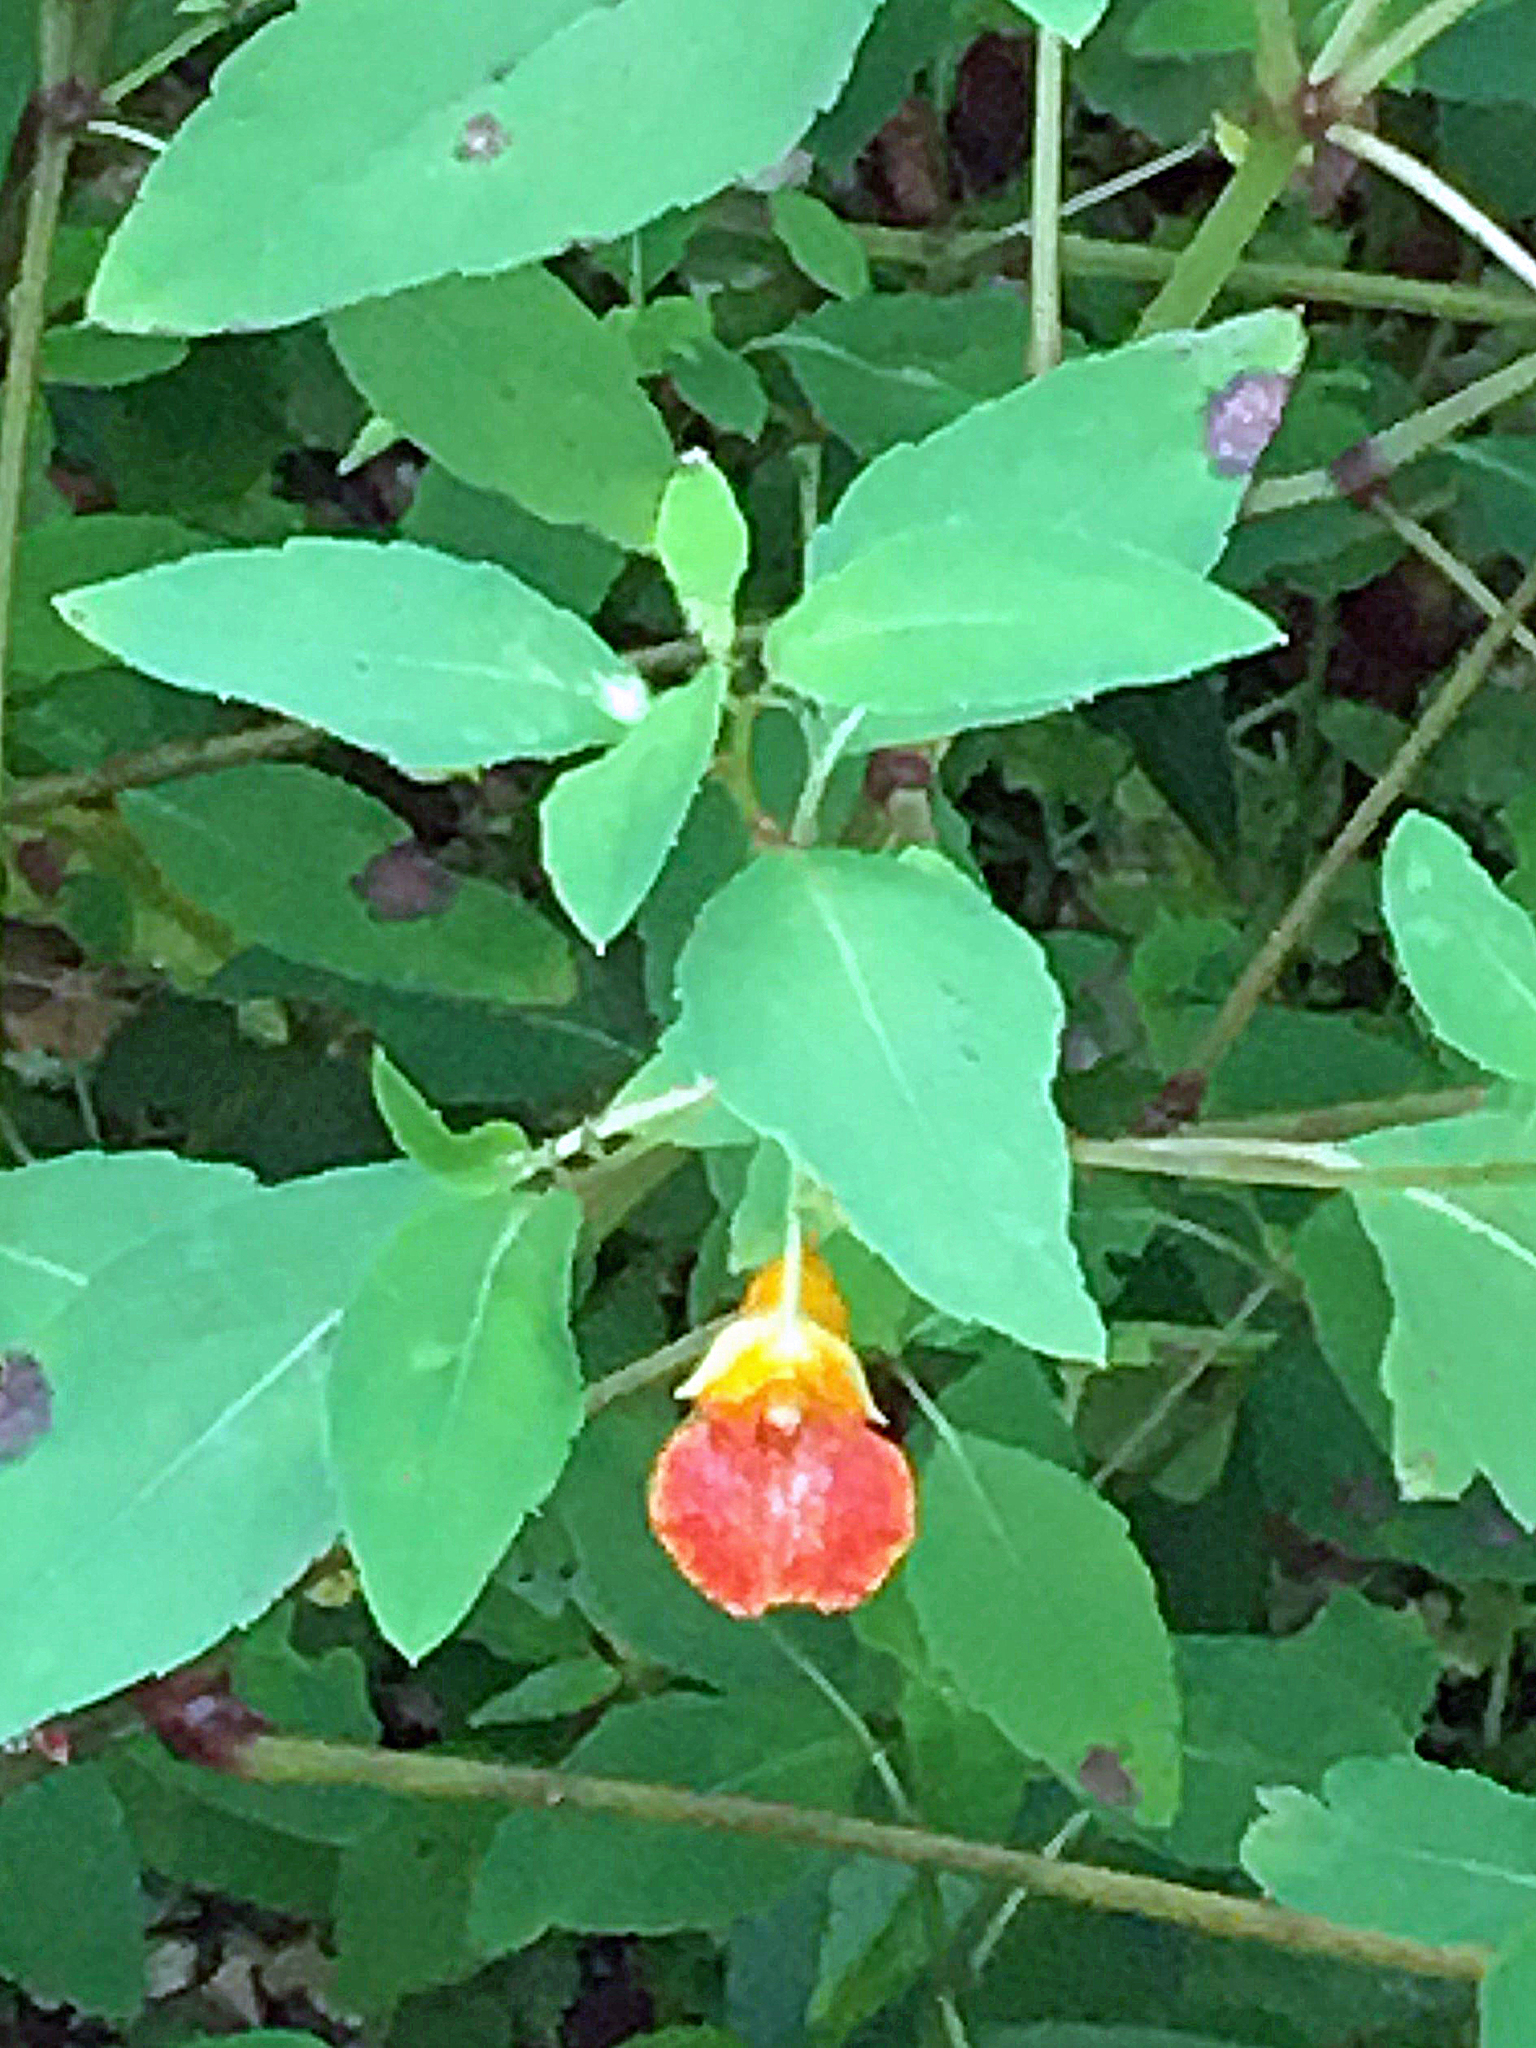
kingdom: Plantae
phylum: Tracheophyta
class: Magnoliopsida
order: Ericales
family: Balsaminaceae
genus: Impatiens
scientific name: Impatiens capensis
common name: Orange balsam
